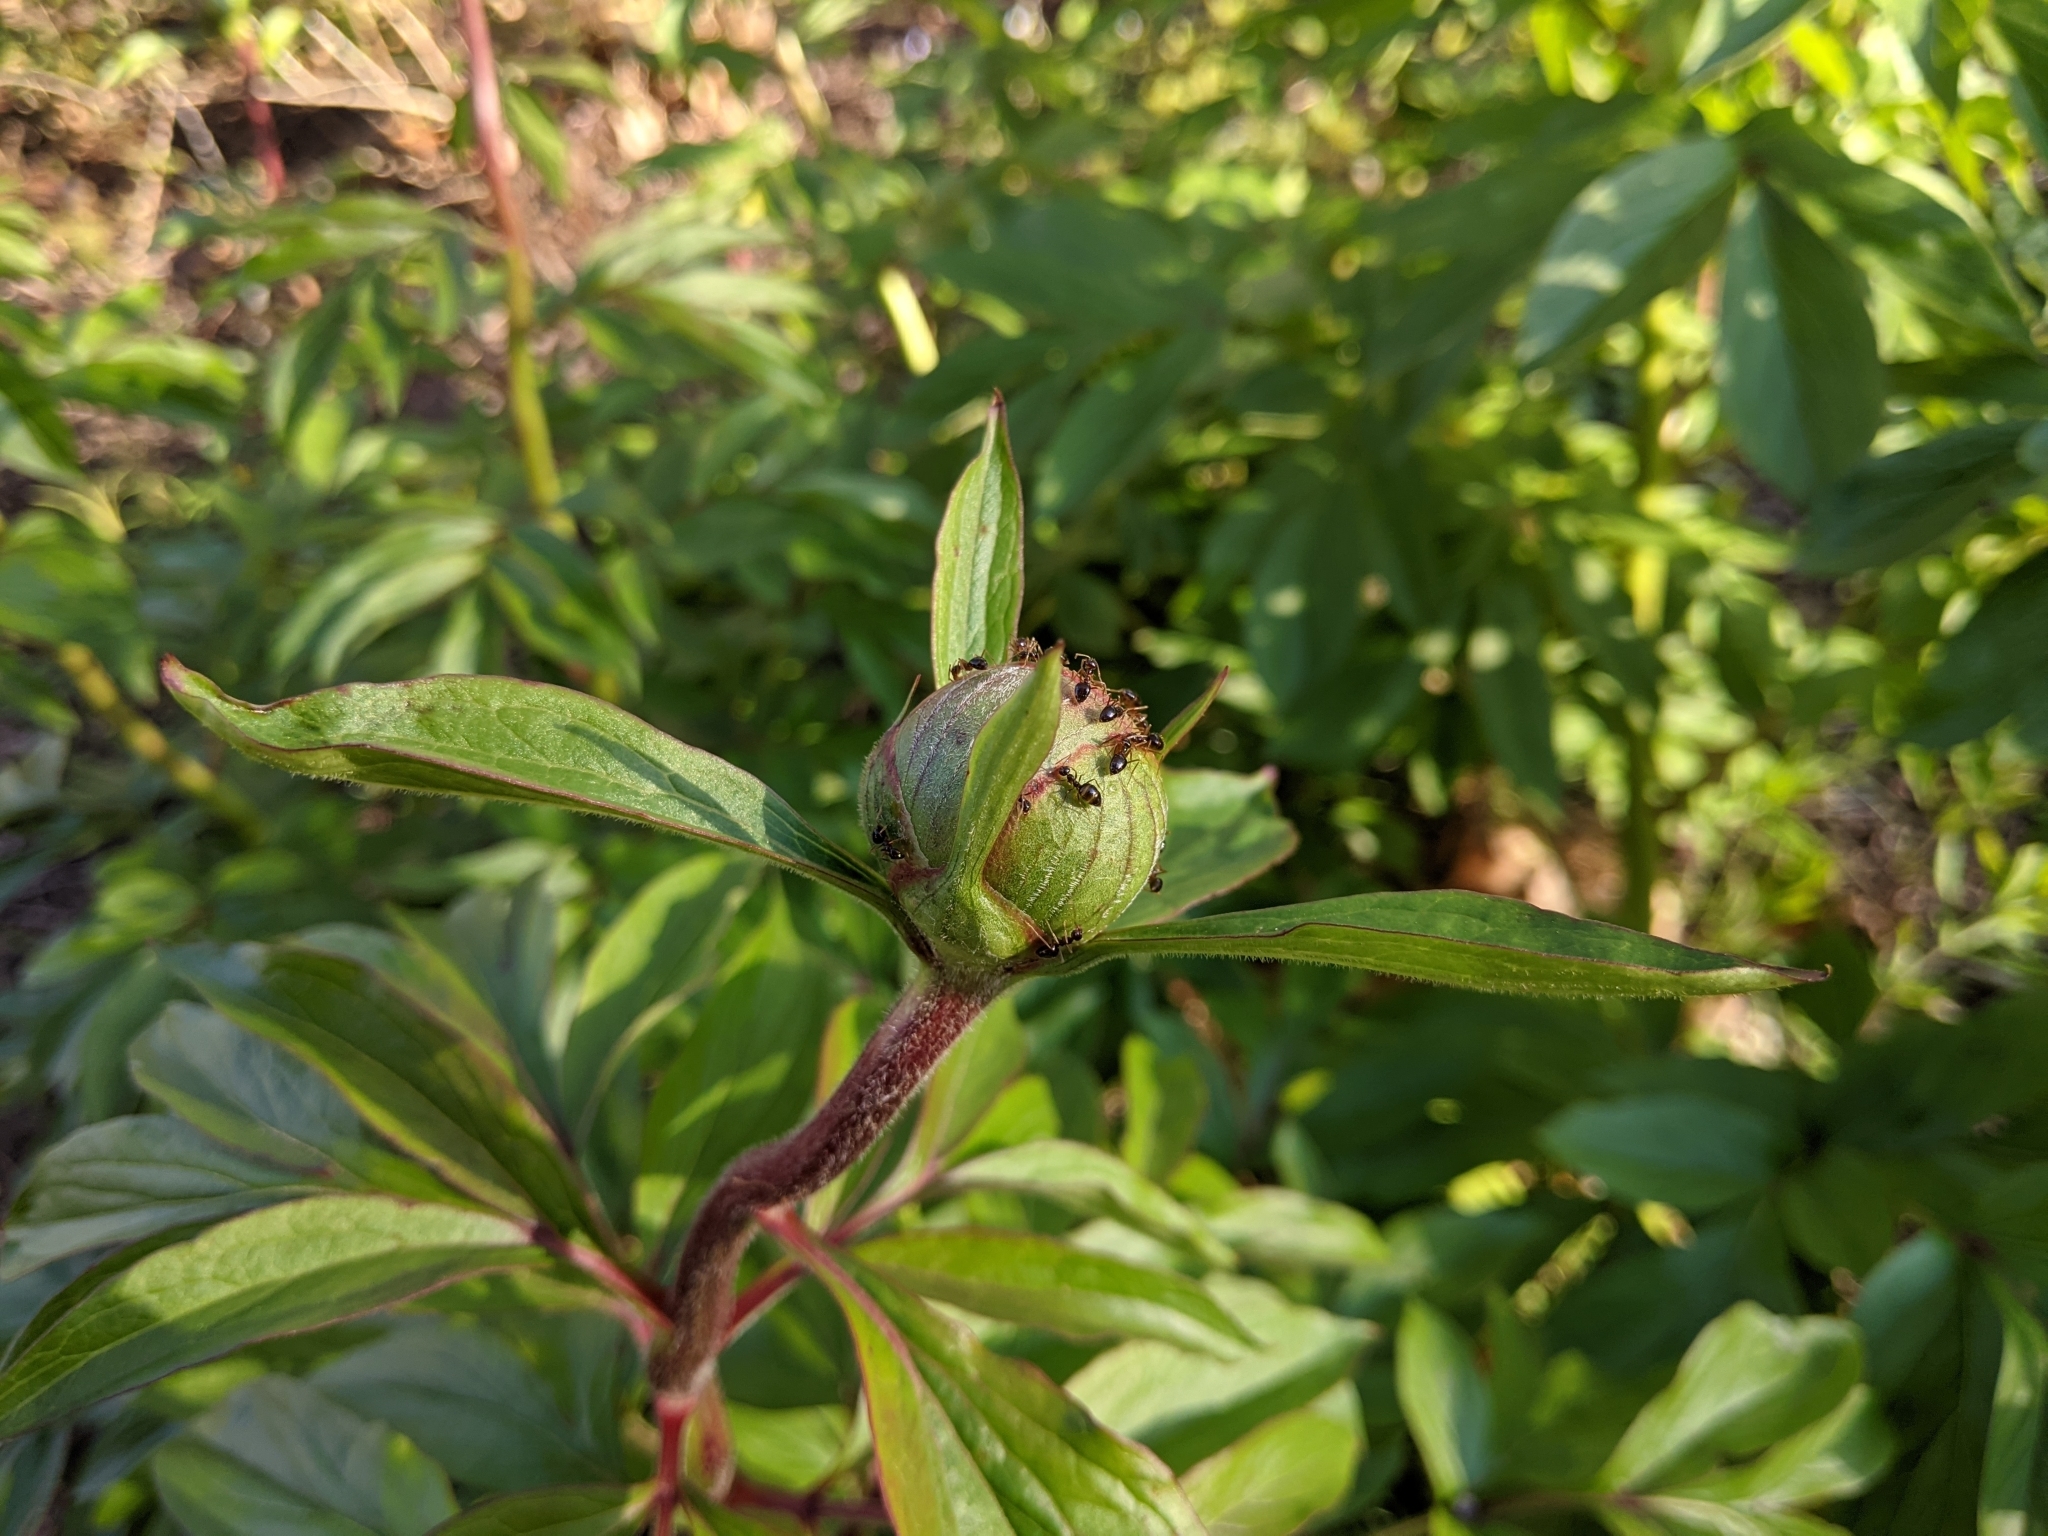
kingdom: Animalia
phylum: Arthropoda
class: Insecta
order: Hymenoptera
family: Formicidae
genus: Prenolepis
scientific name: Prenolepis imparis
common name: Small honey ant
